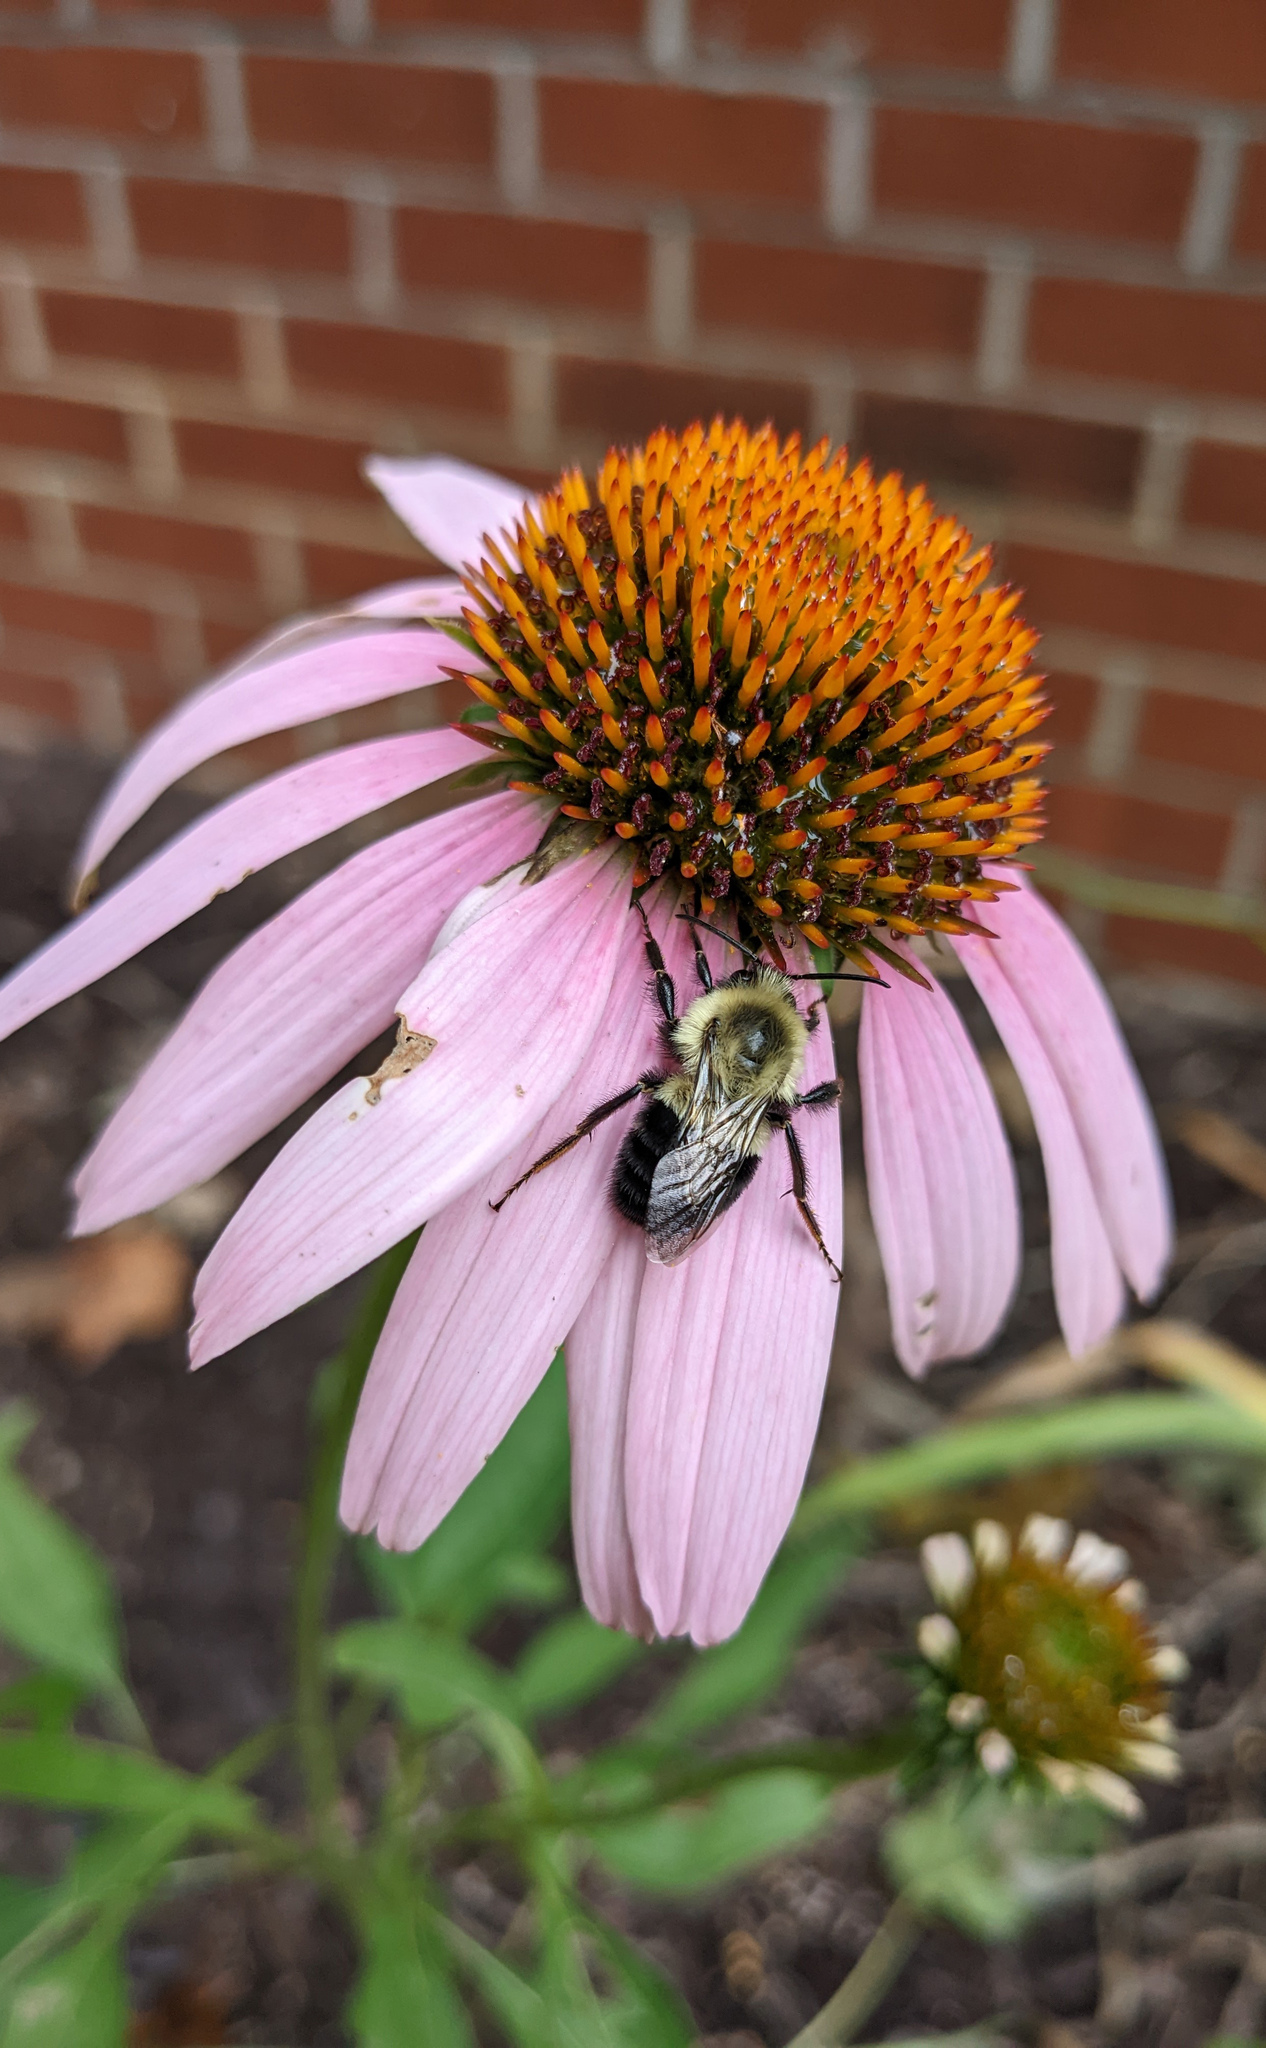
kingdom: Animalia
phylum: Arthropoda
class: Insecta
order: Hymenoptera
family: Apidae
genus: Bombus
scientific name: Bombus impatiens
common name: Common eastern bumble bee
